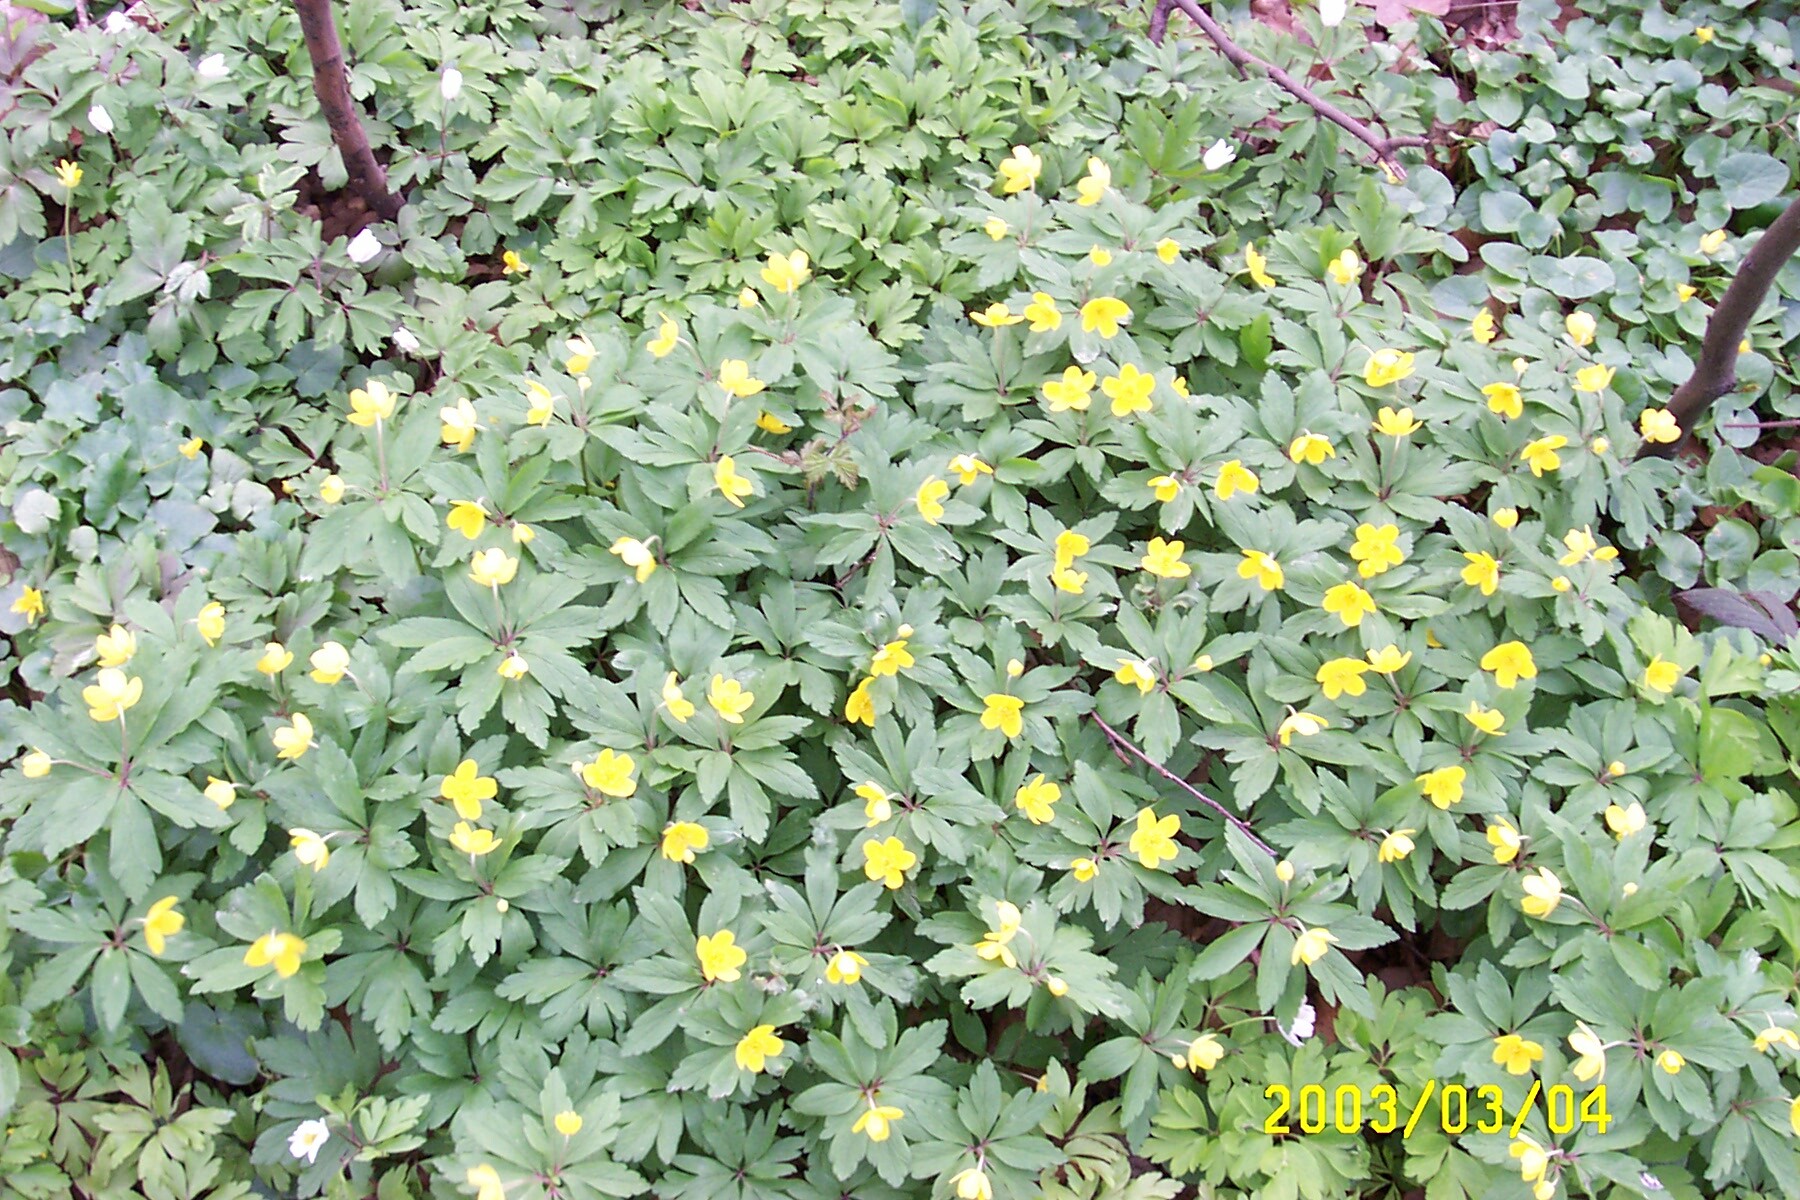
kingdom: Plantae
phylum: Tracheophyta
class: Magnoliopsida
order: Ranunculales
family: Ranunculaceae
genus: Anemone
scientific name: Anemone ranunculoides
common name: Yellow anemone
